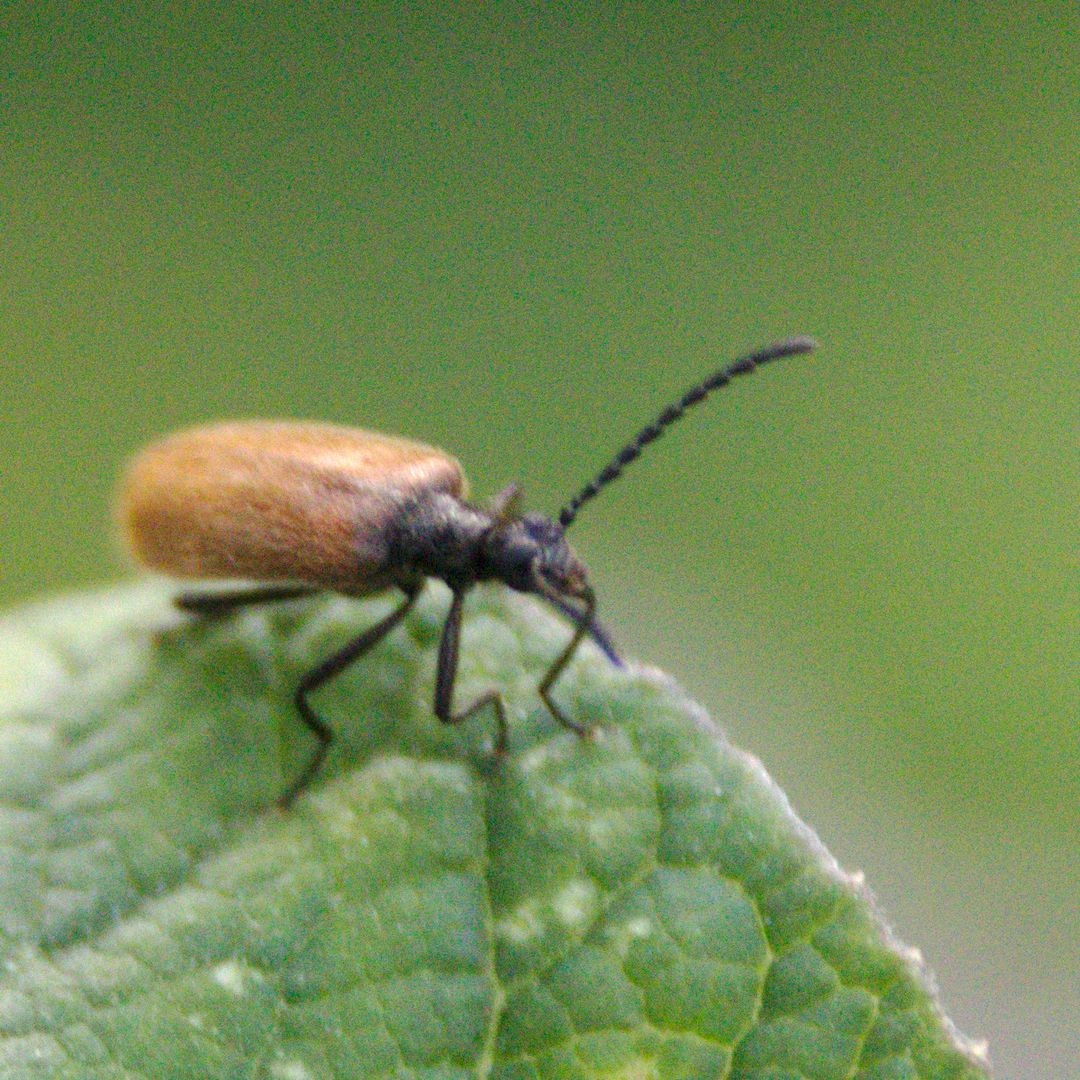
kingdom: Animalia
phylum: Arthropoda
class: Insecta
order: Coleoptera
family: Tenebrionidae
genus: Lagria
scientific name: Lagria hirta
